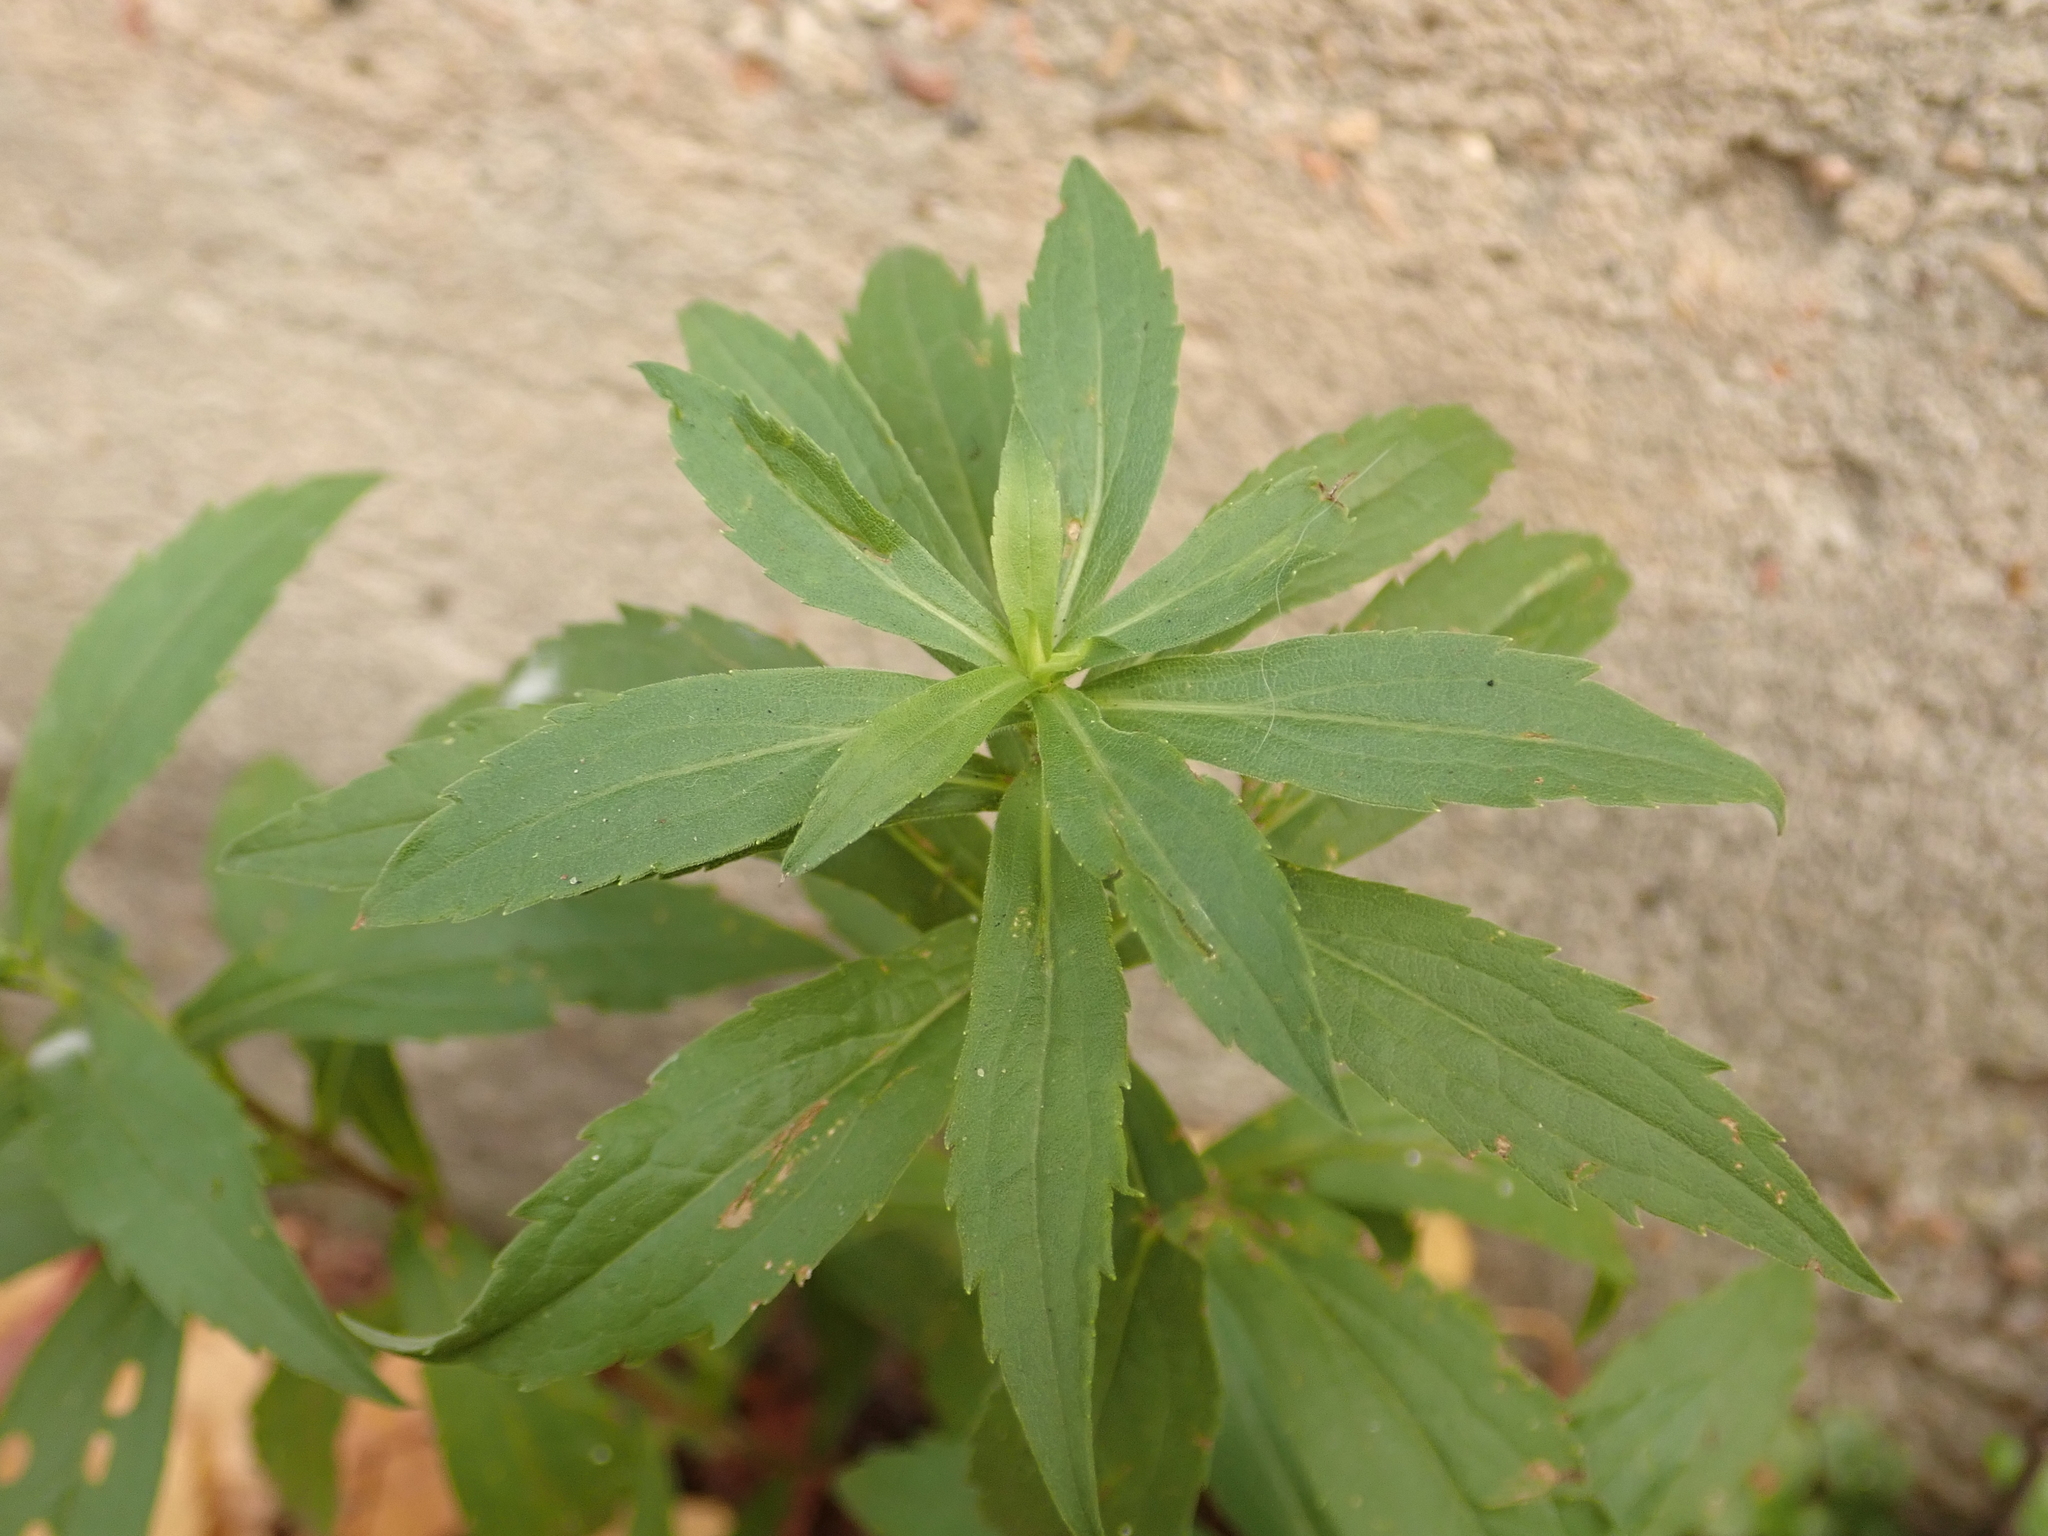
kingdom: Plantae
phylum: Tracheophyta
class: Magnoliopsida
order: Asterales
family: Asteraceae
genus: Solidago
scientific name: Solidago canadensis
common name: Canada goldenrod
